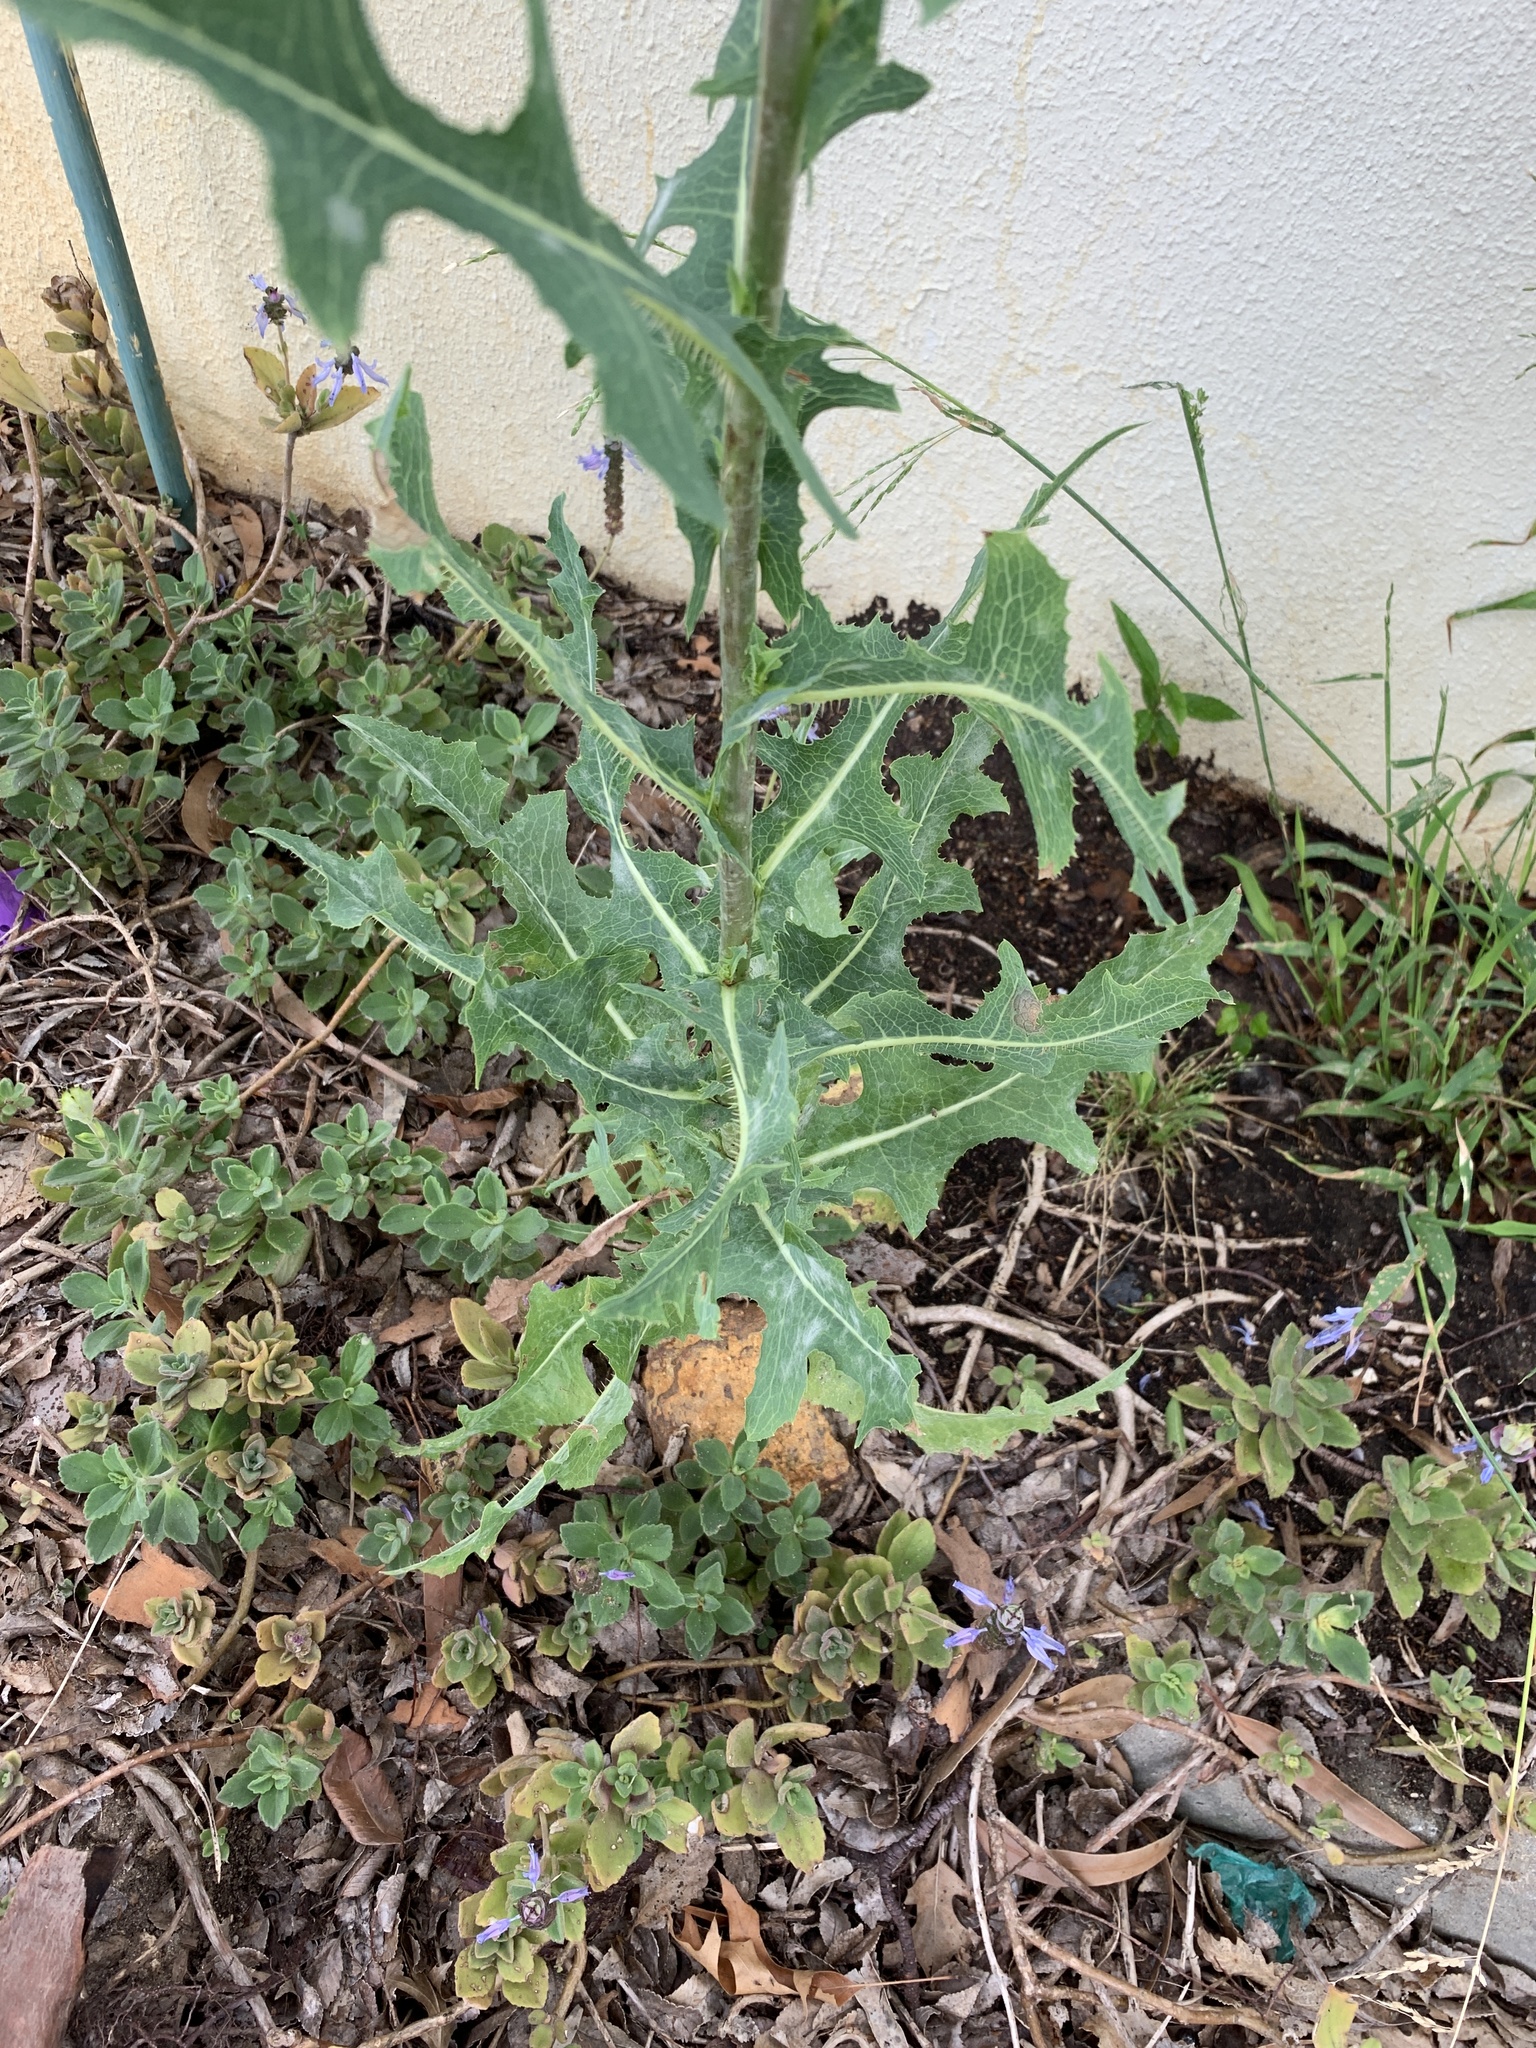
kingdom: Plantae
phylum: Tracheophyta
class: Magnoliopsida
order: Asterales
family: Asteraceae
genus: Lactuca
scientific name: Lactuca serriola
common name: Prickly lettuce
